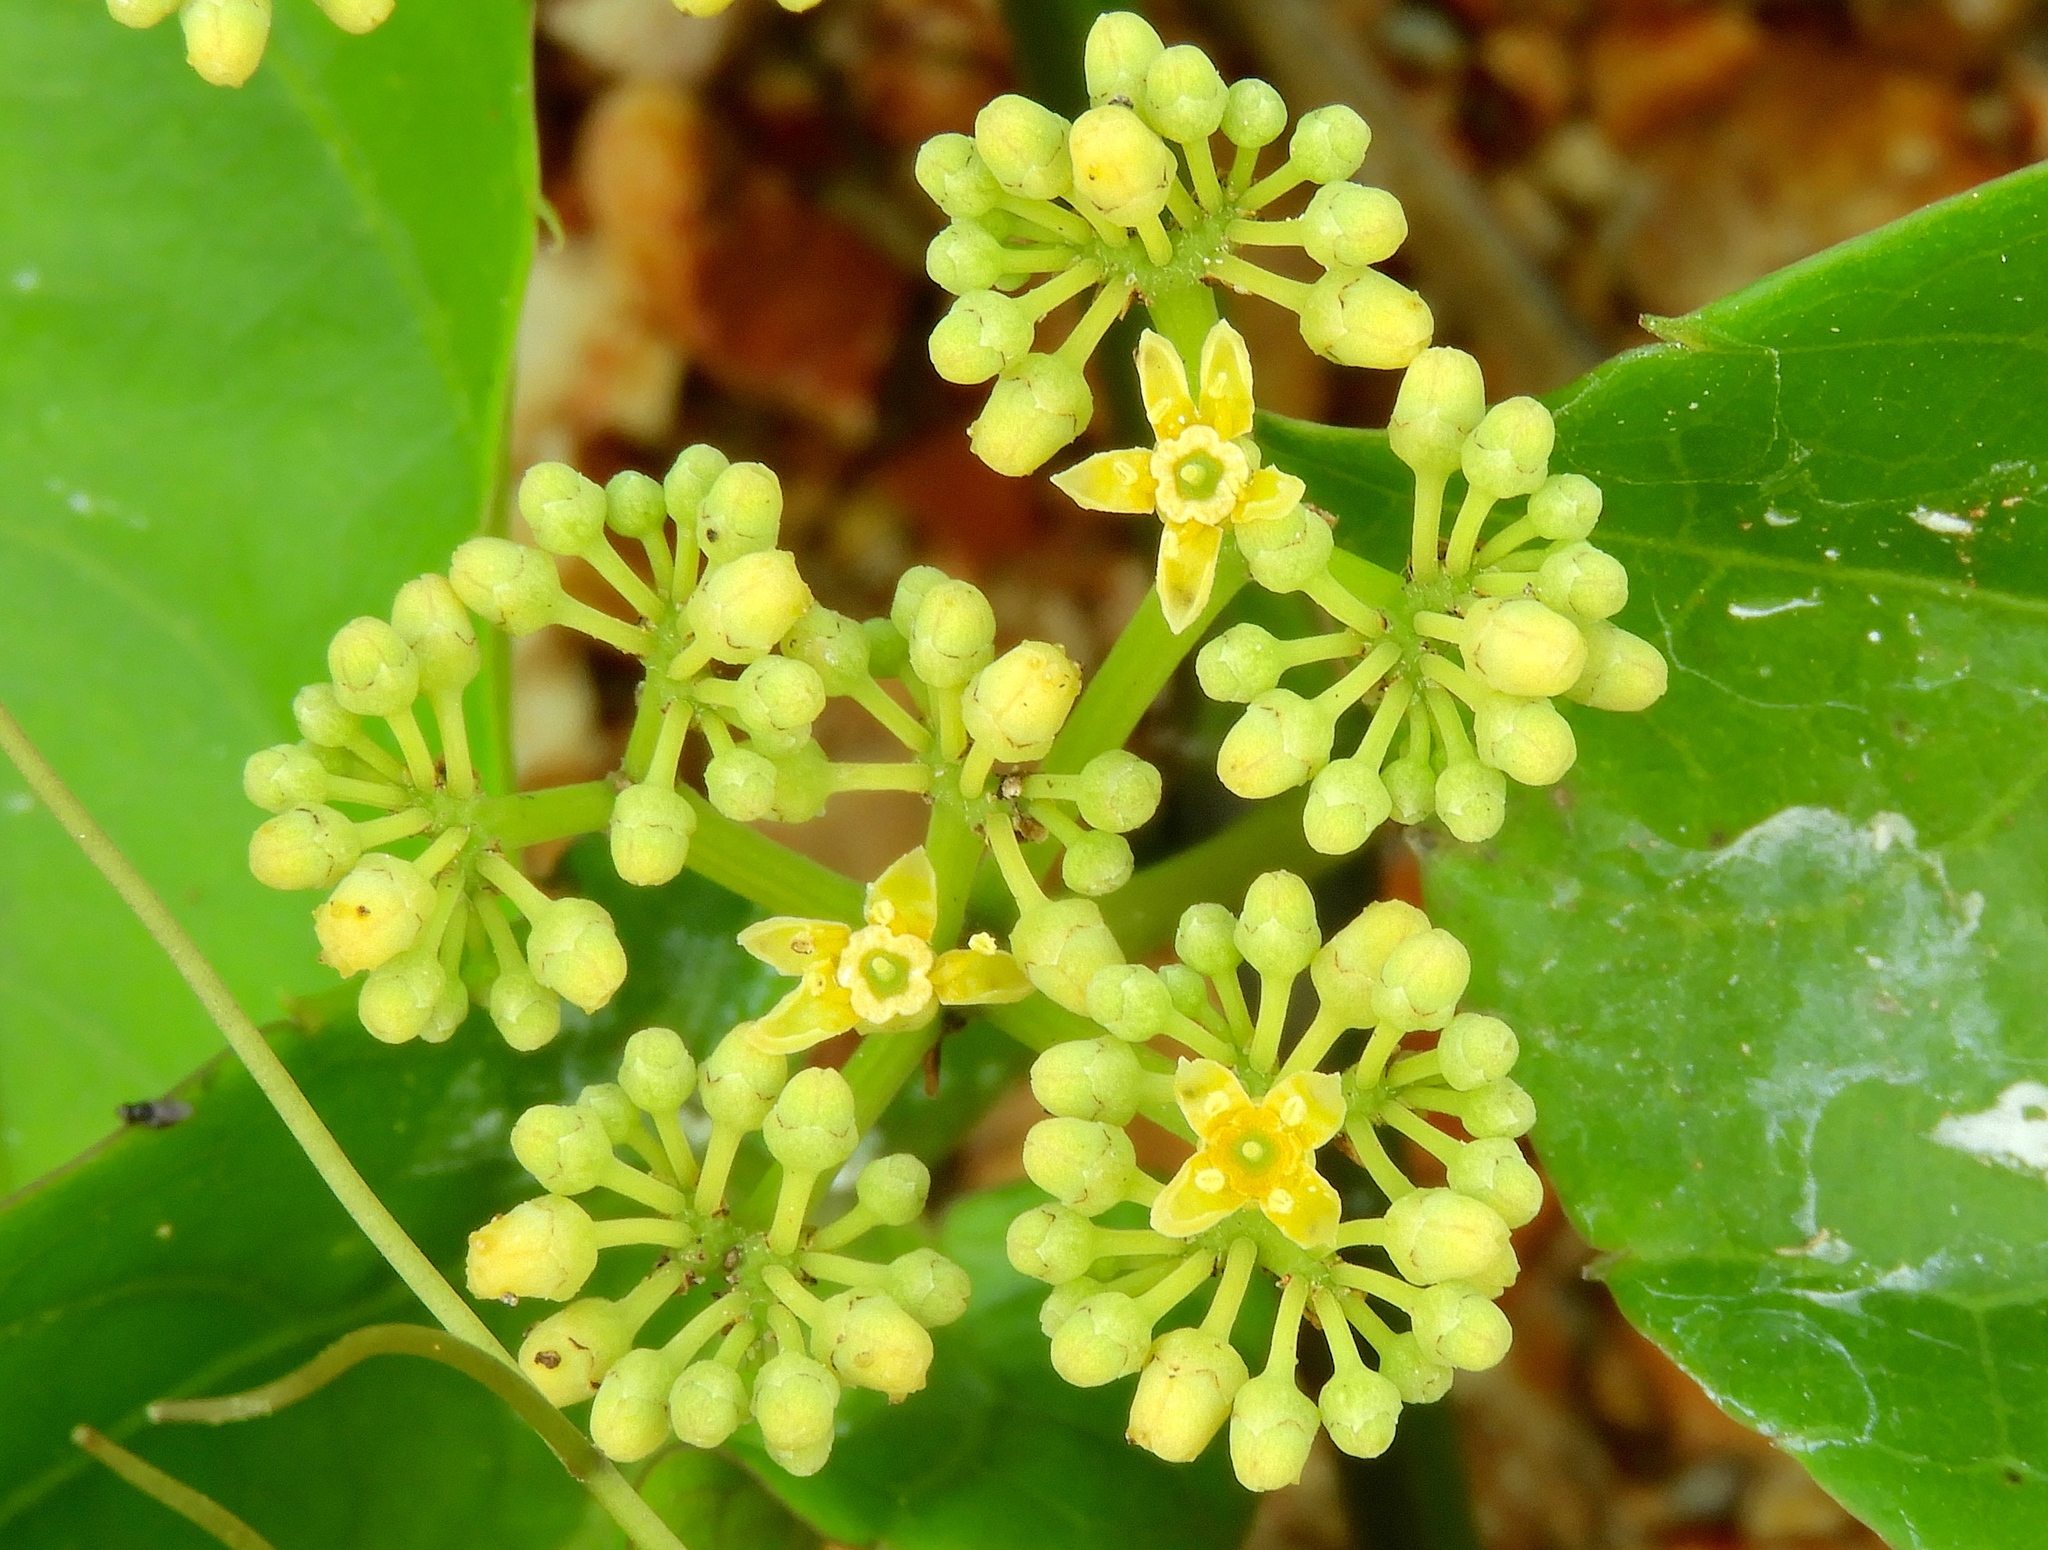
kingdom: Plantae
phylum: Tracheophyta
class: Magnoliopsida
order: Vitales
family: Vitaceae
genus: Cissus
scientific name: Cissus verticillata
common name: Princess vine
